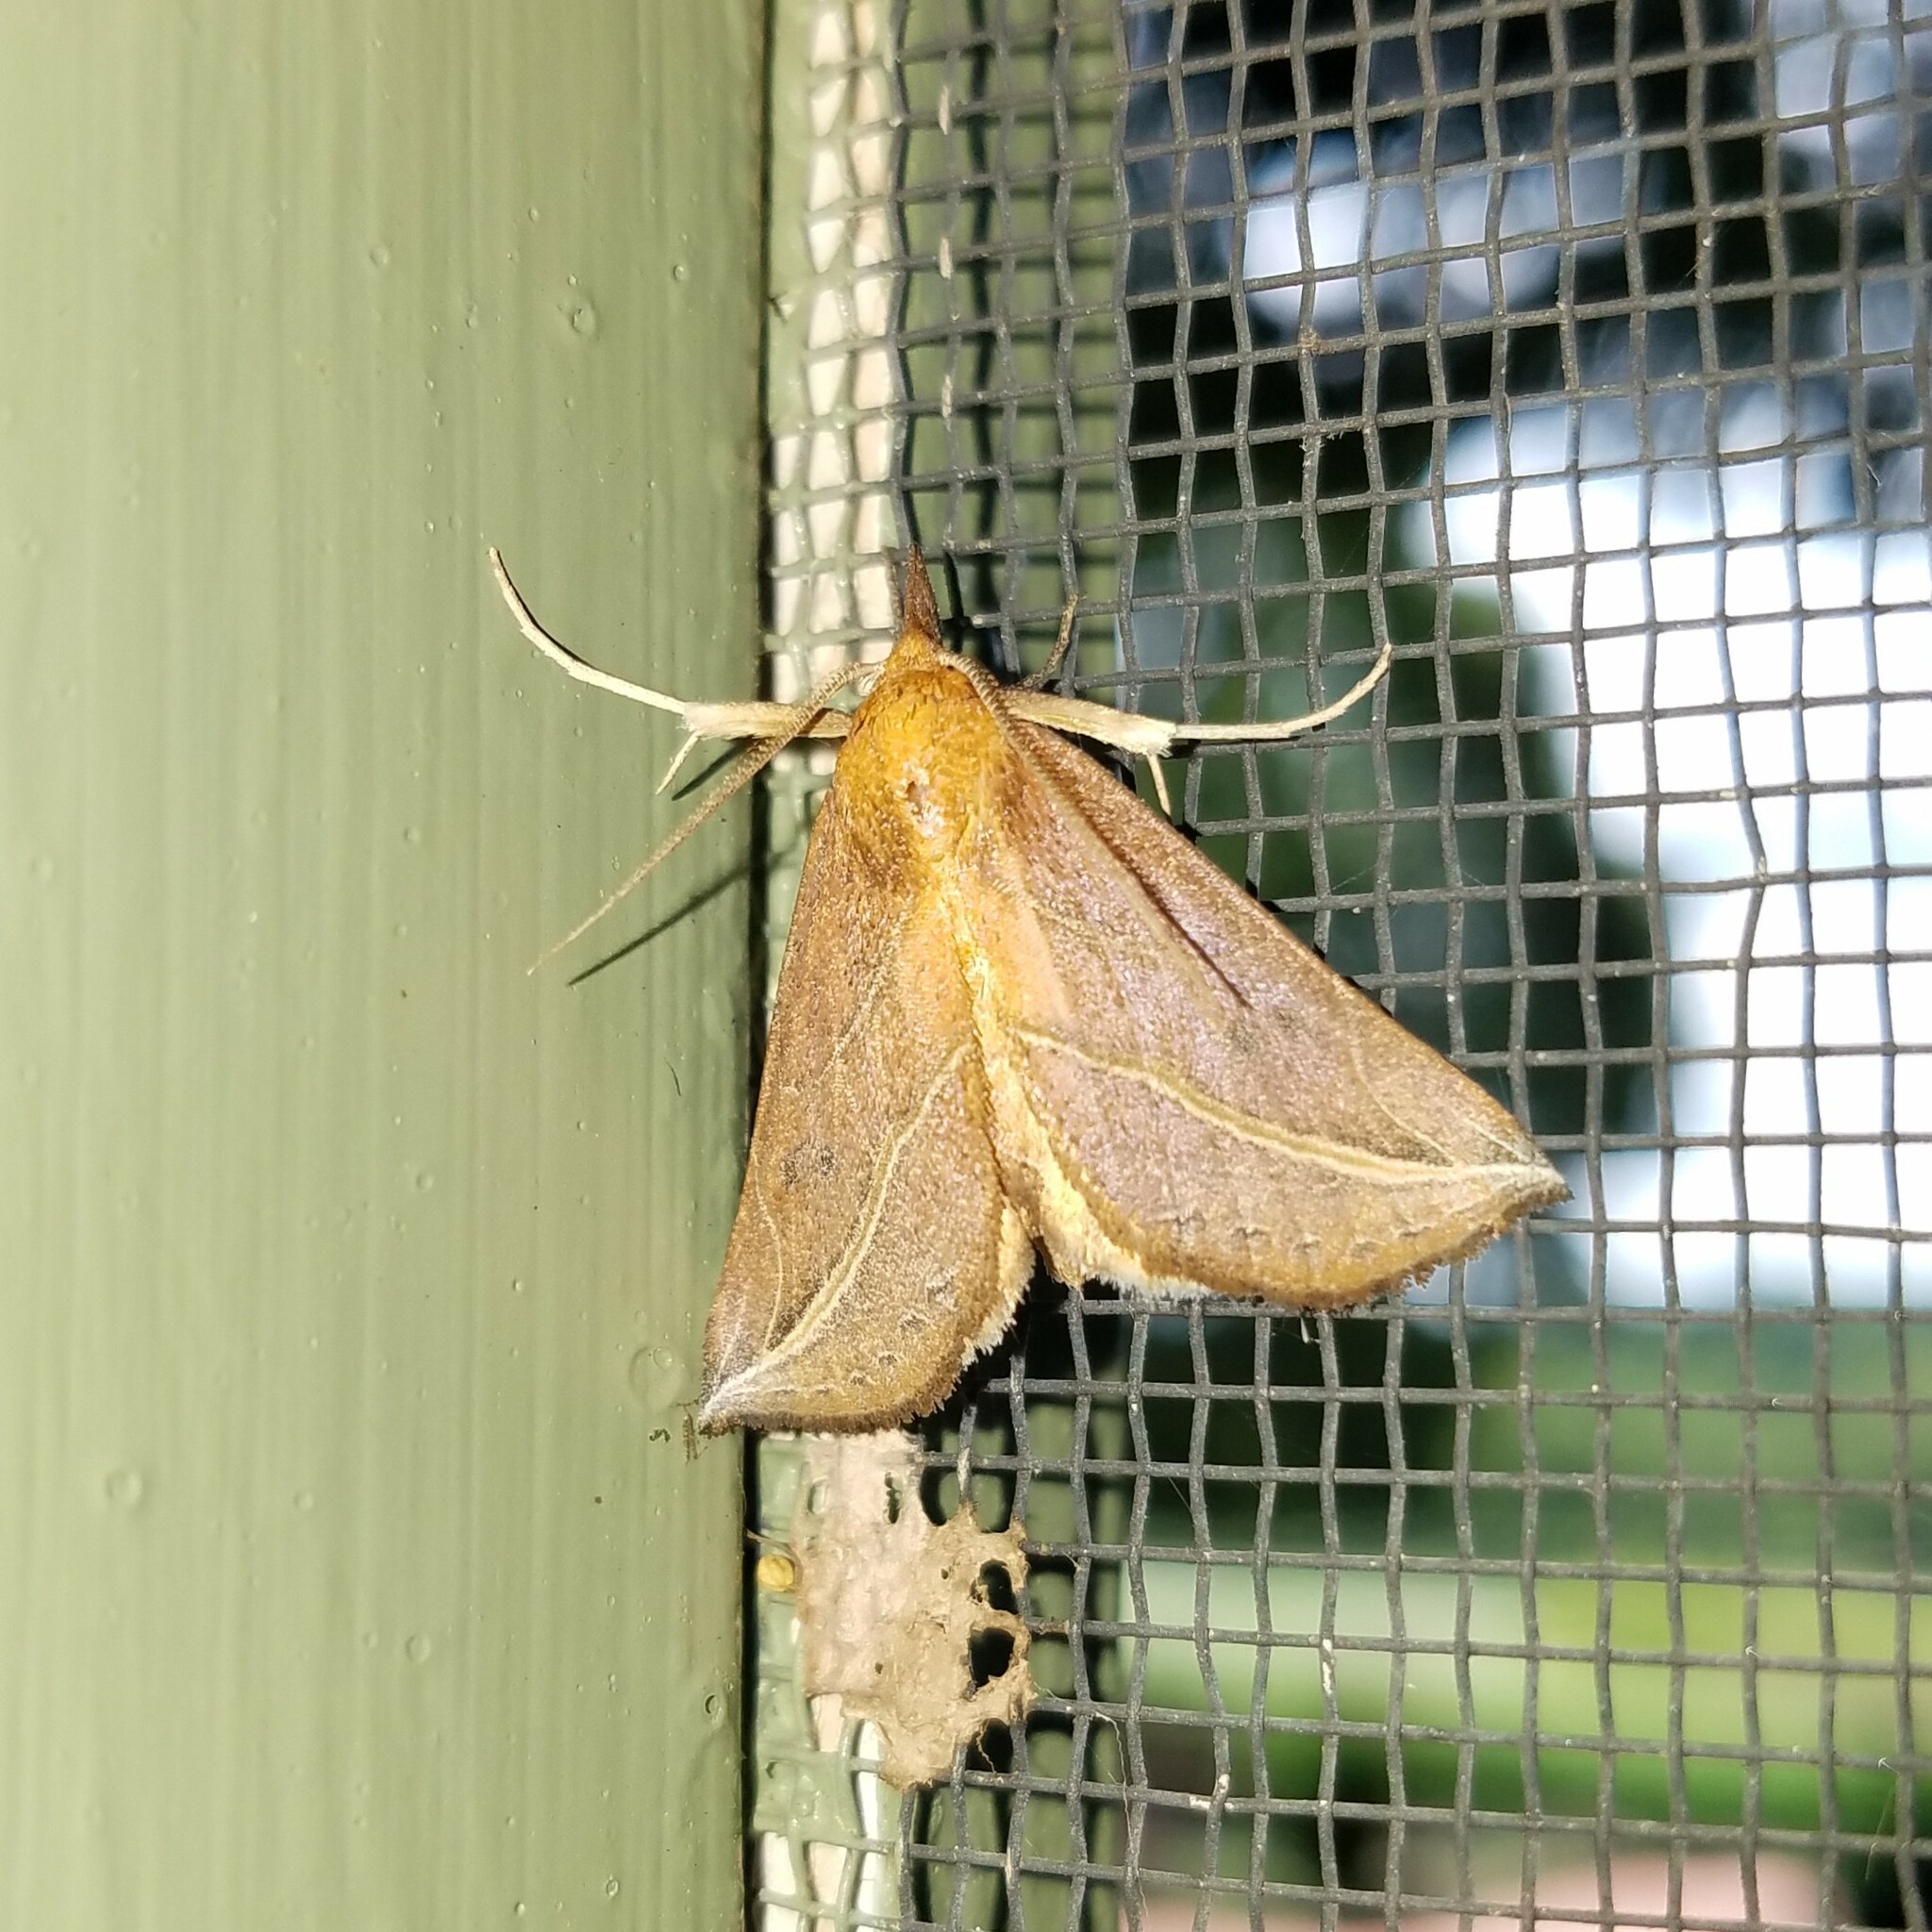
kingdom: Animalia
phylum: Arthropoda
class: Insecta
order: Lepidoptera
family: Erebidae
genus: Phyprosopus
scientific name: Phyprosopus callitrichoides
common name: Curved-lined owlet
